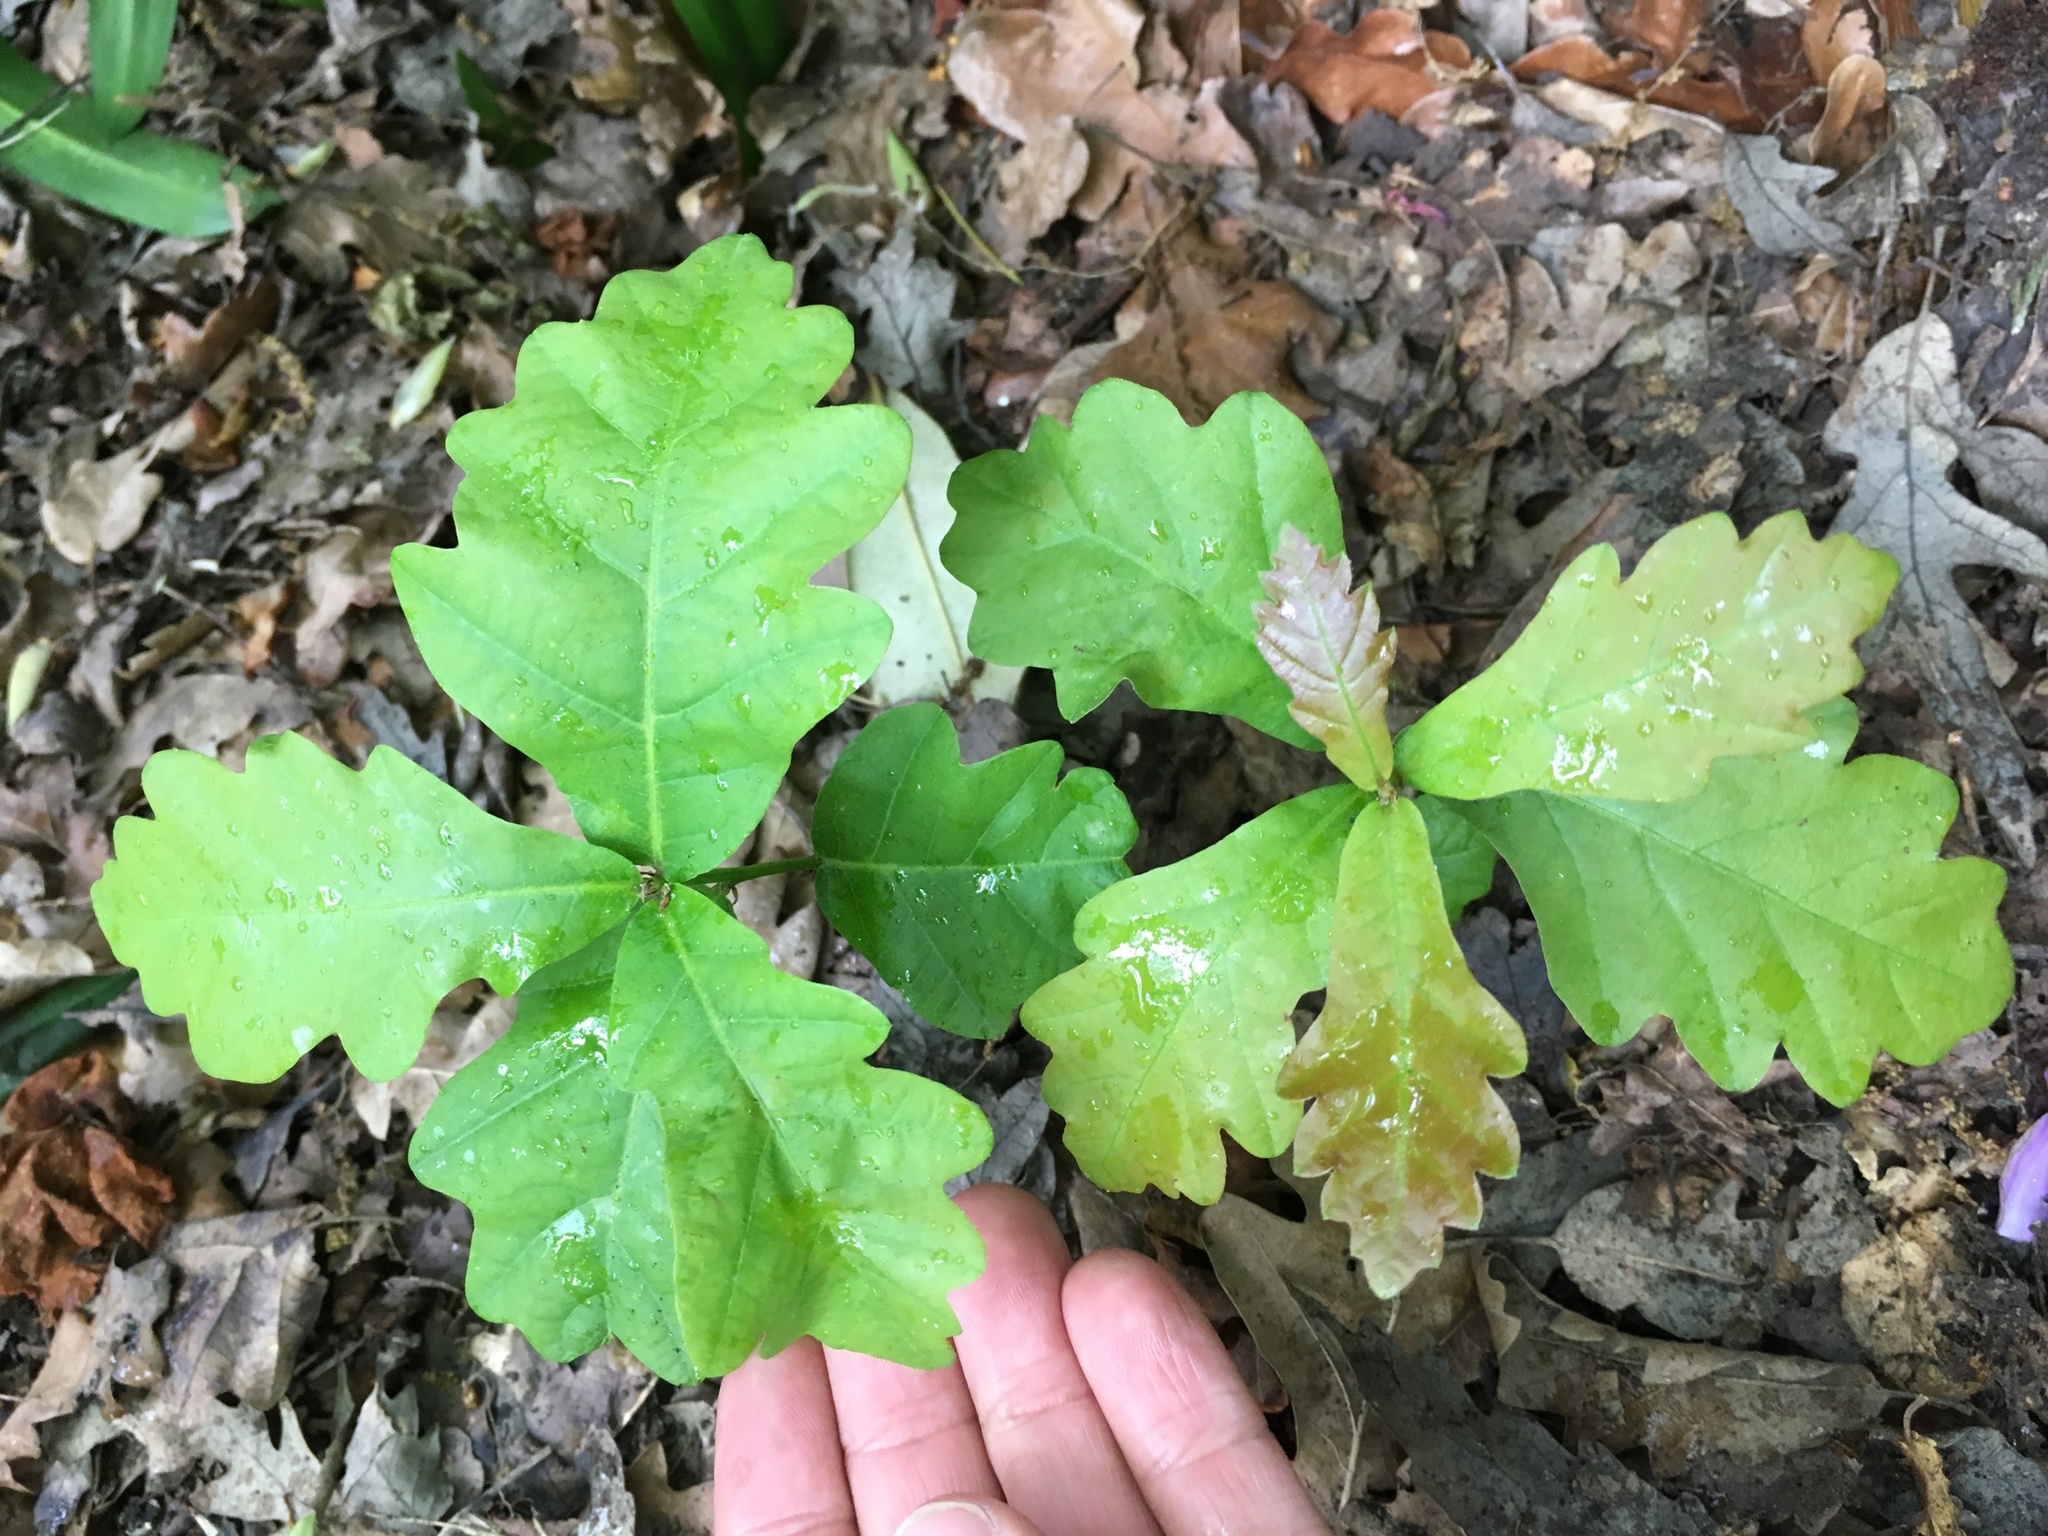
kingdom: Plantae
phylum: Tracheophyta
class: Magnoliopsida
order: Fagales
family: Fagaceae
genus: Quercus
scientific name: Quercus robur
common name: Pedunculate oak
